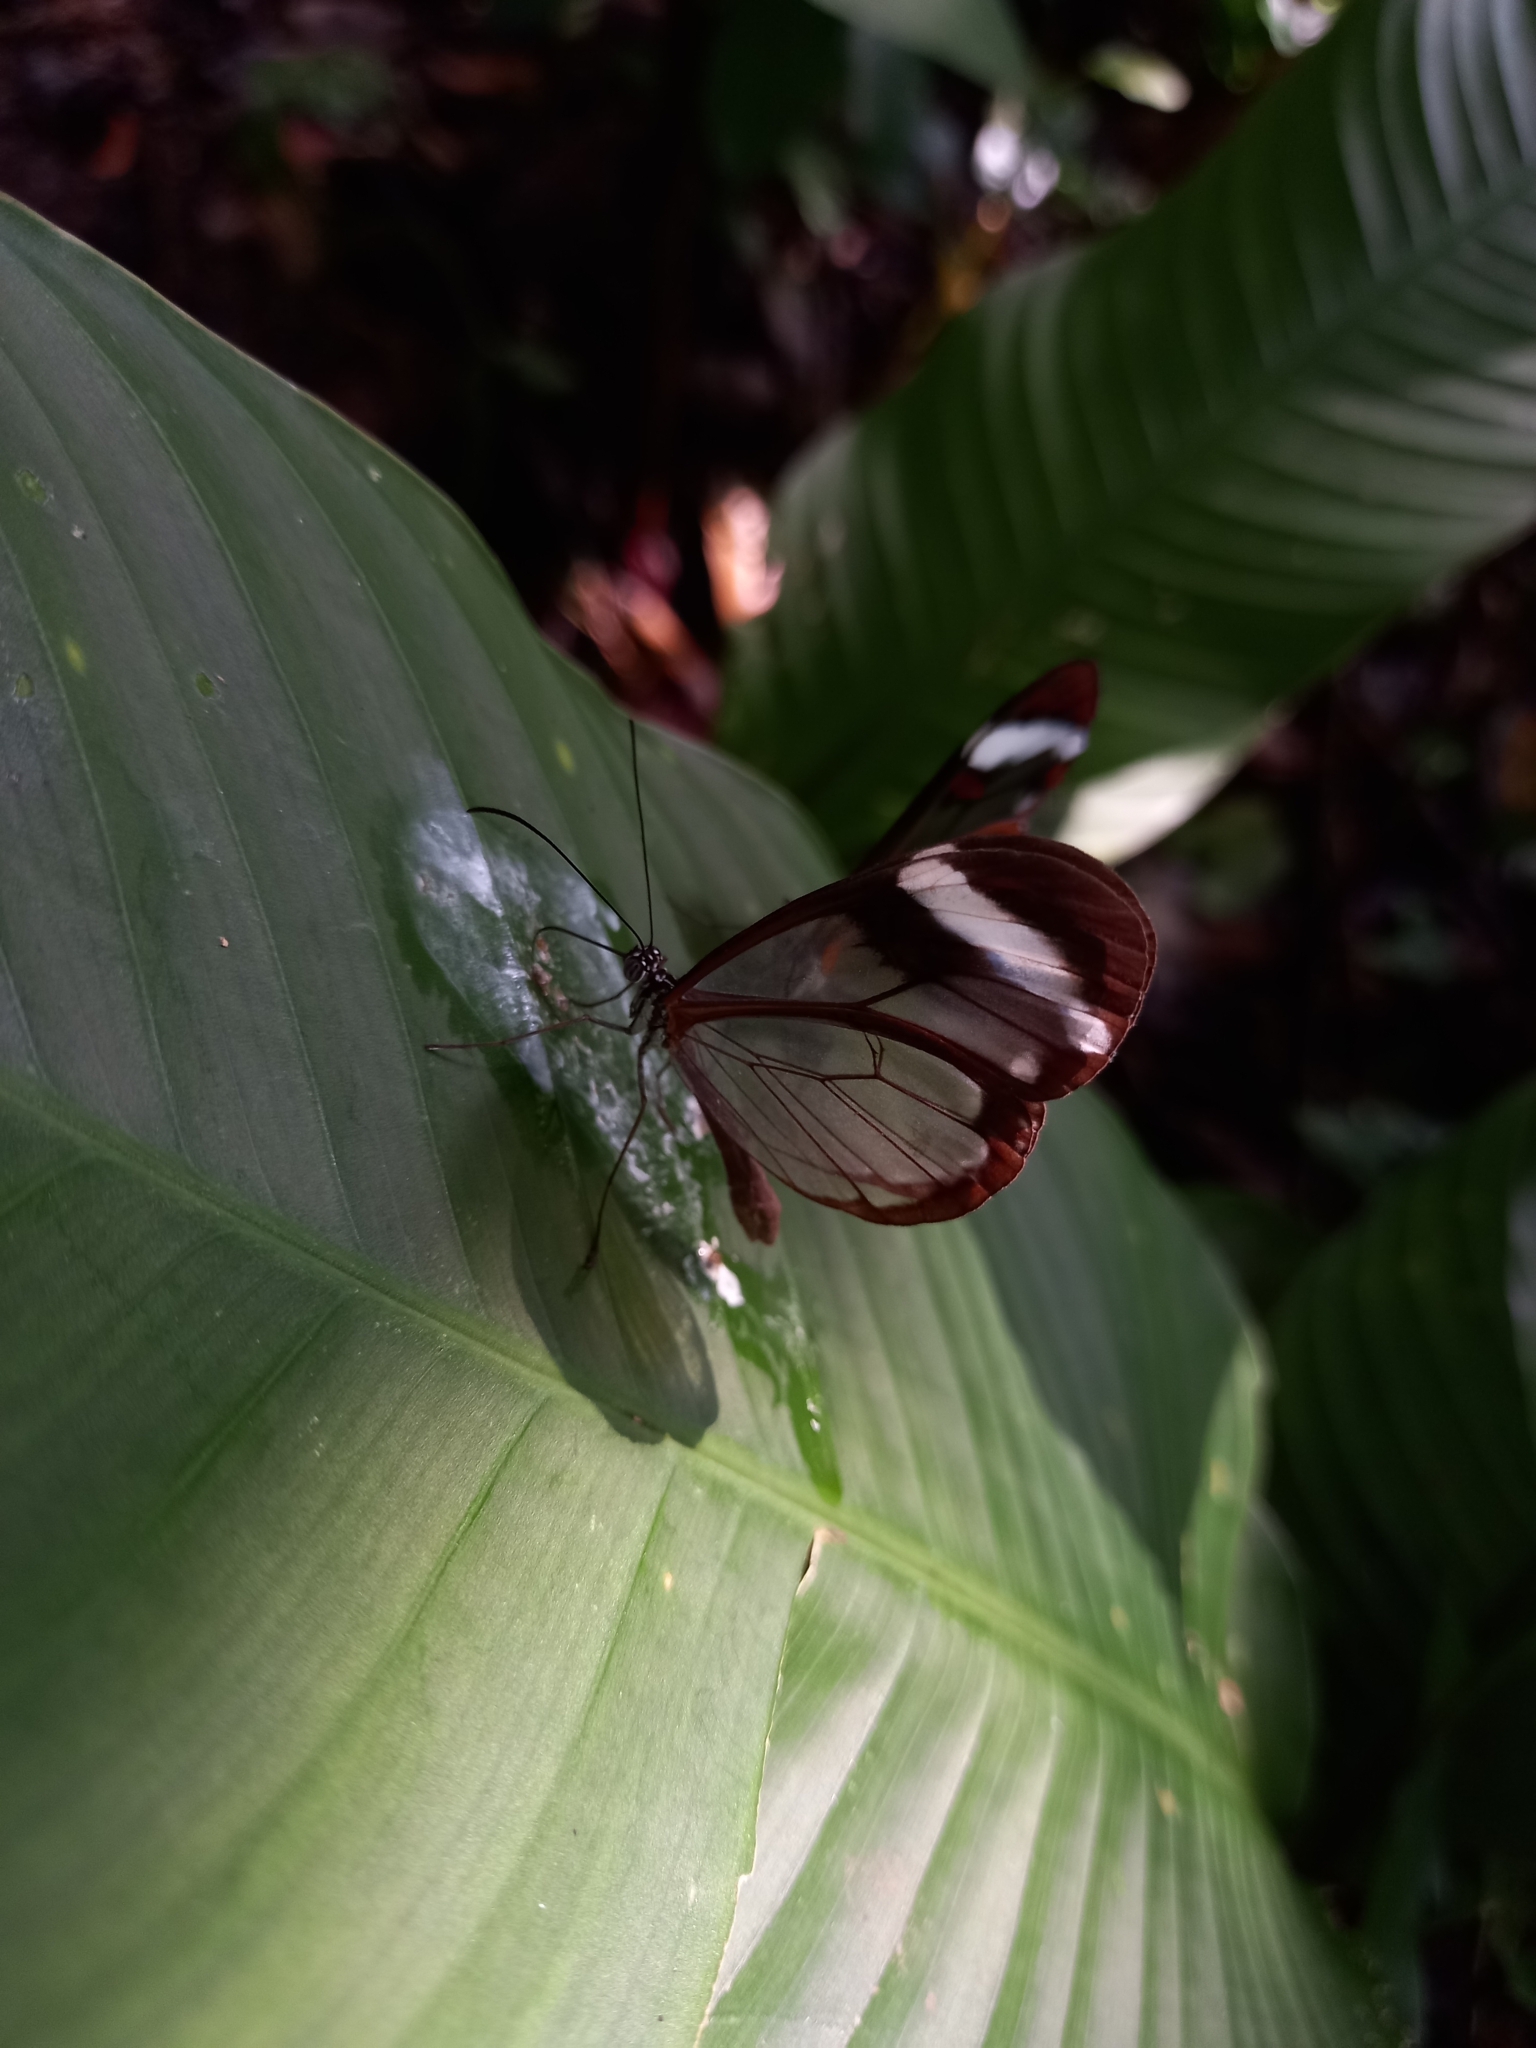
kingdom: Animalia
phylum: Arthropoda
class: Insecta
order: Lepidoptera
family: Nymphalidae
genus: Greta
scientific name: Greta morgane
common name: Thick-tipped greta
